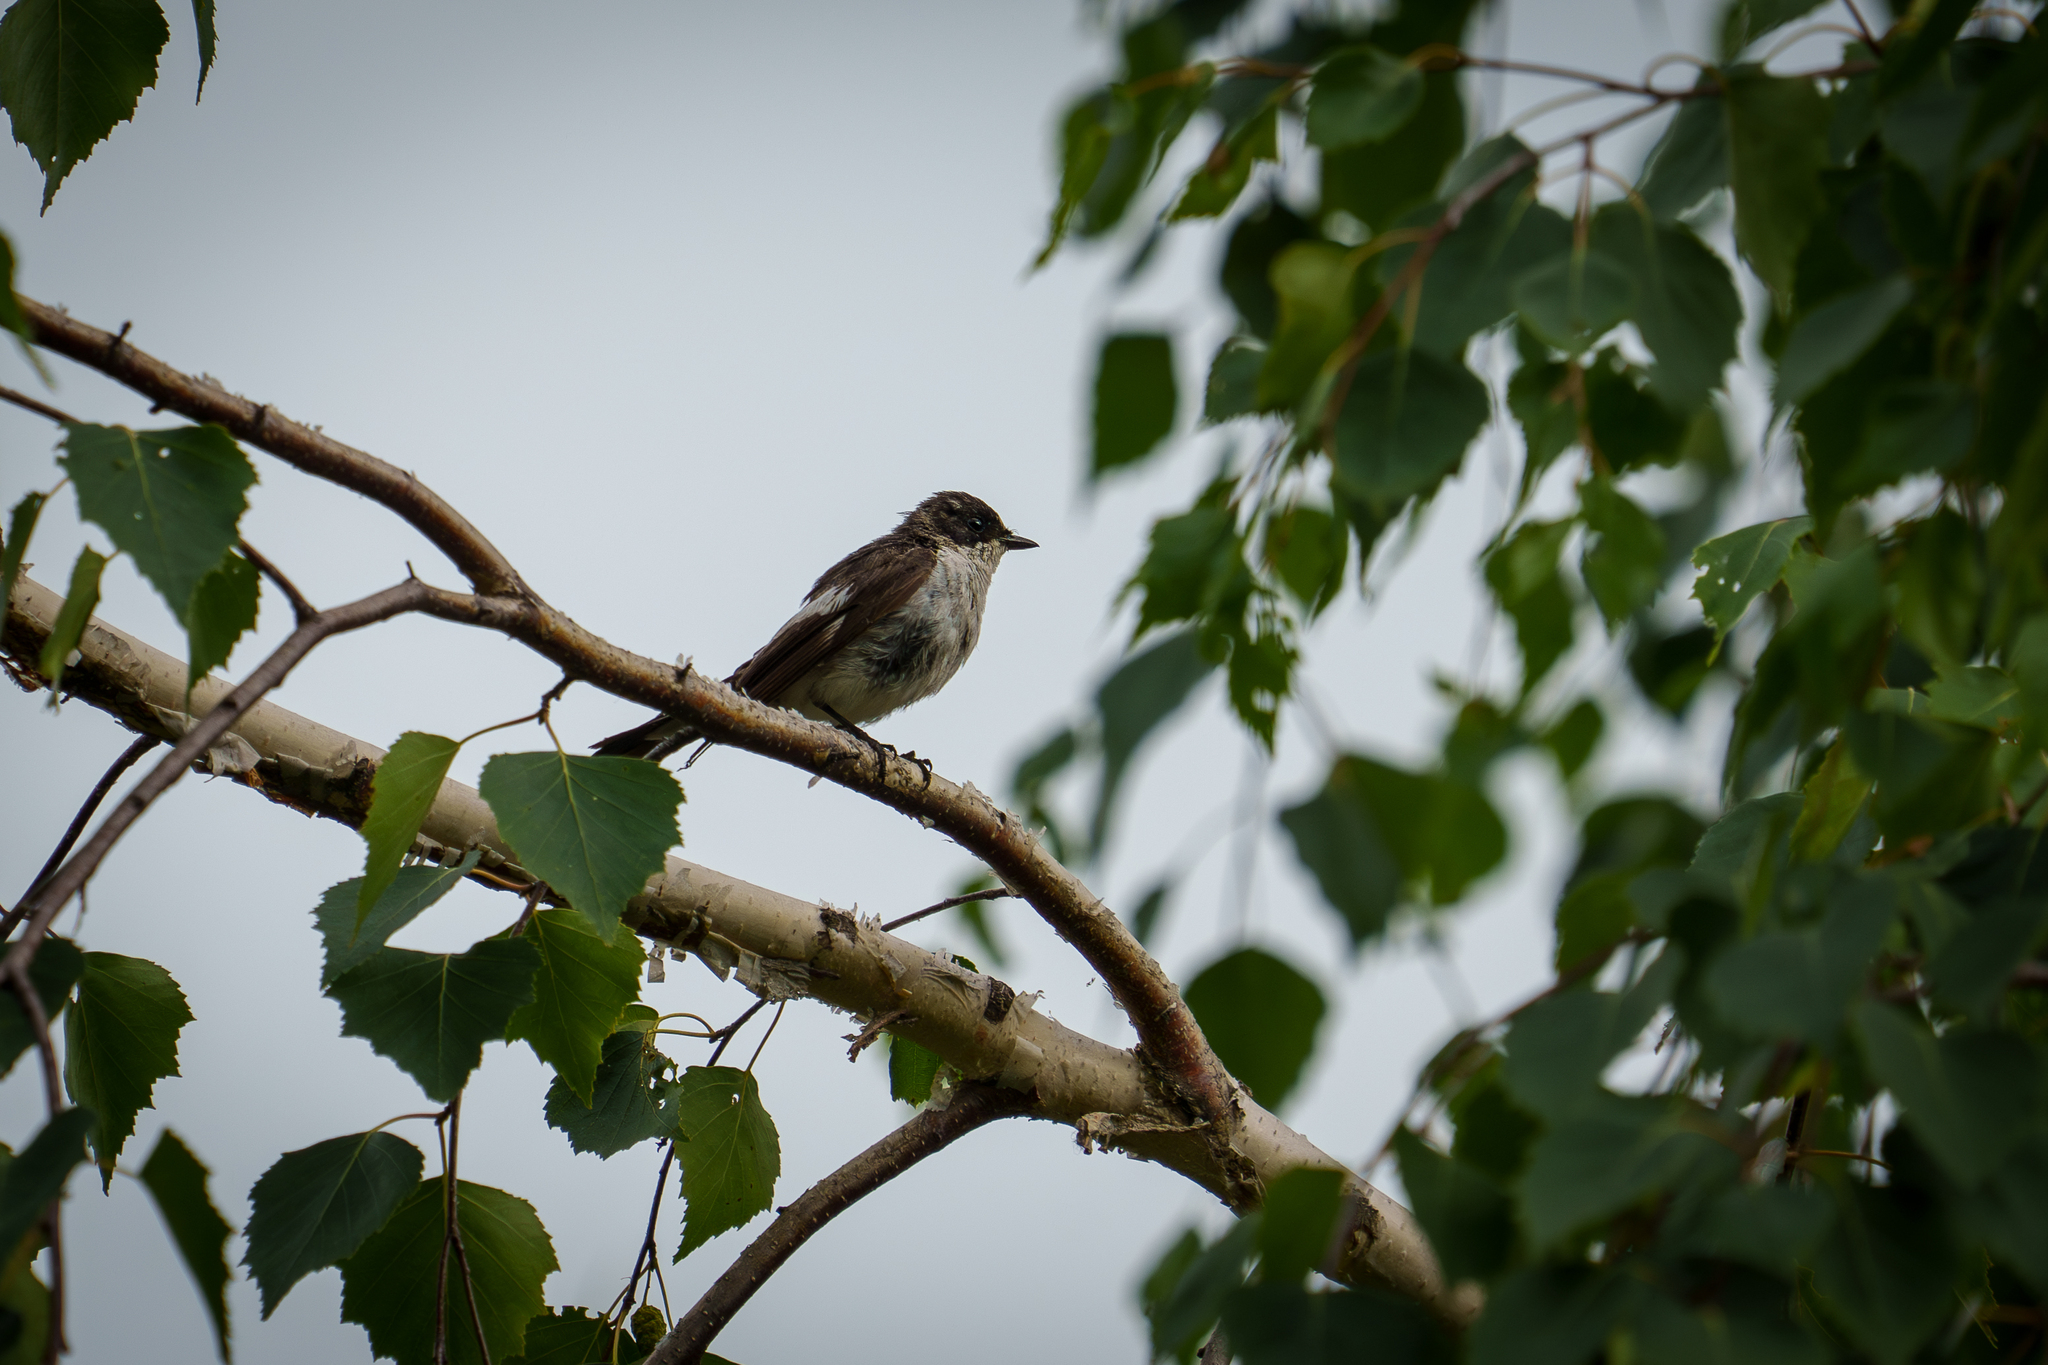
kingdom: Animalia
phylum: Chordata
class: Aves
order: Passeriformes
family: Muscicapidae
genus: Ficedula
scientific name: Ficedula hypoleuca
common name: European pied flycatcher
